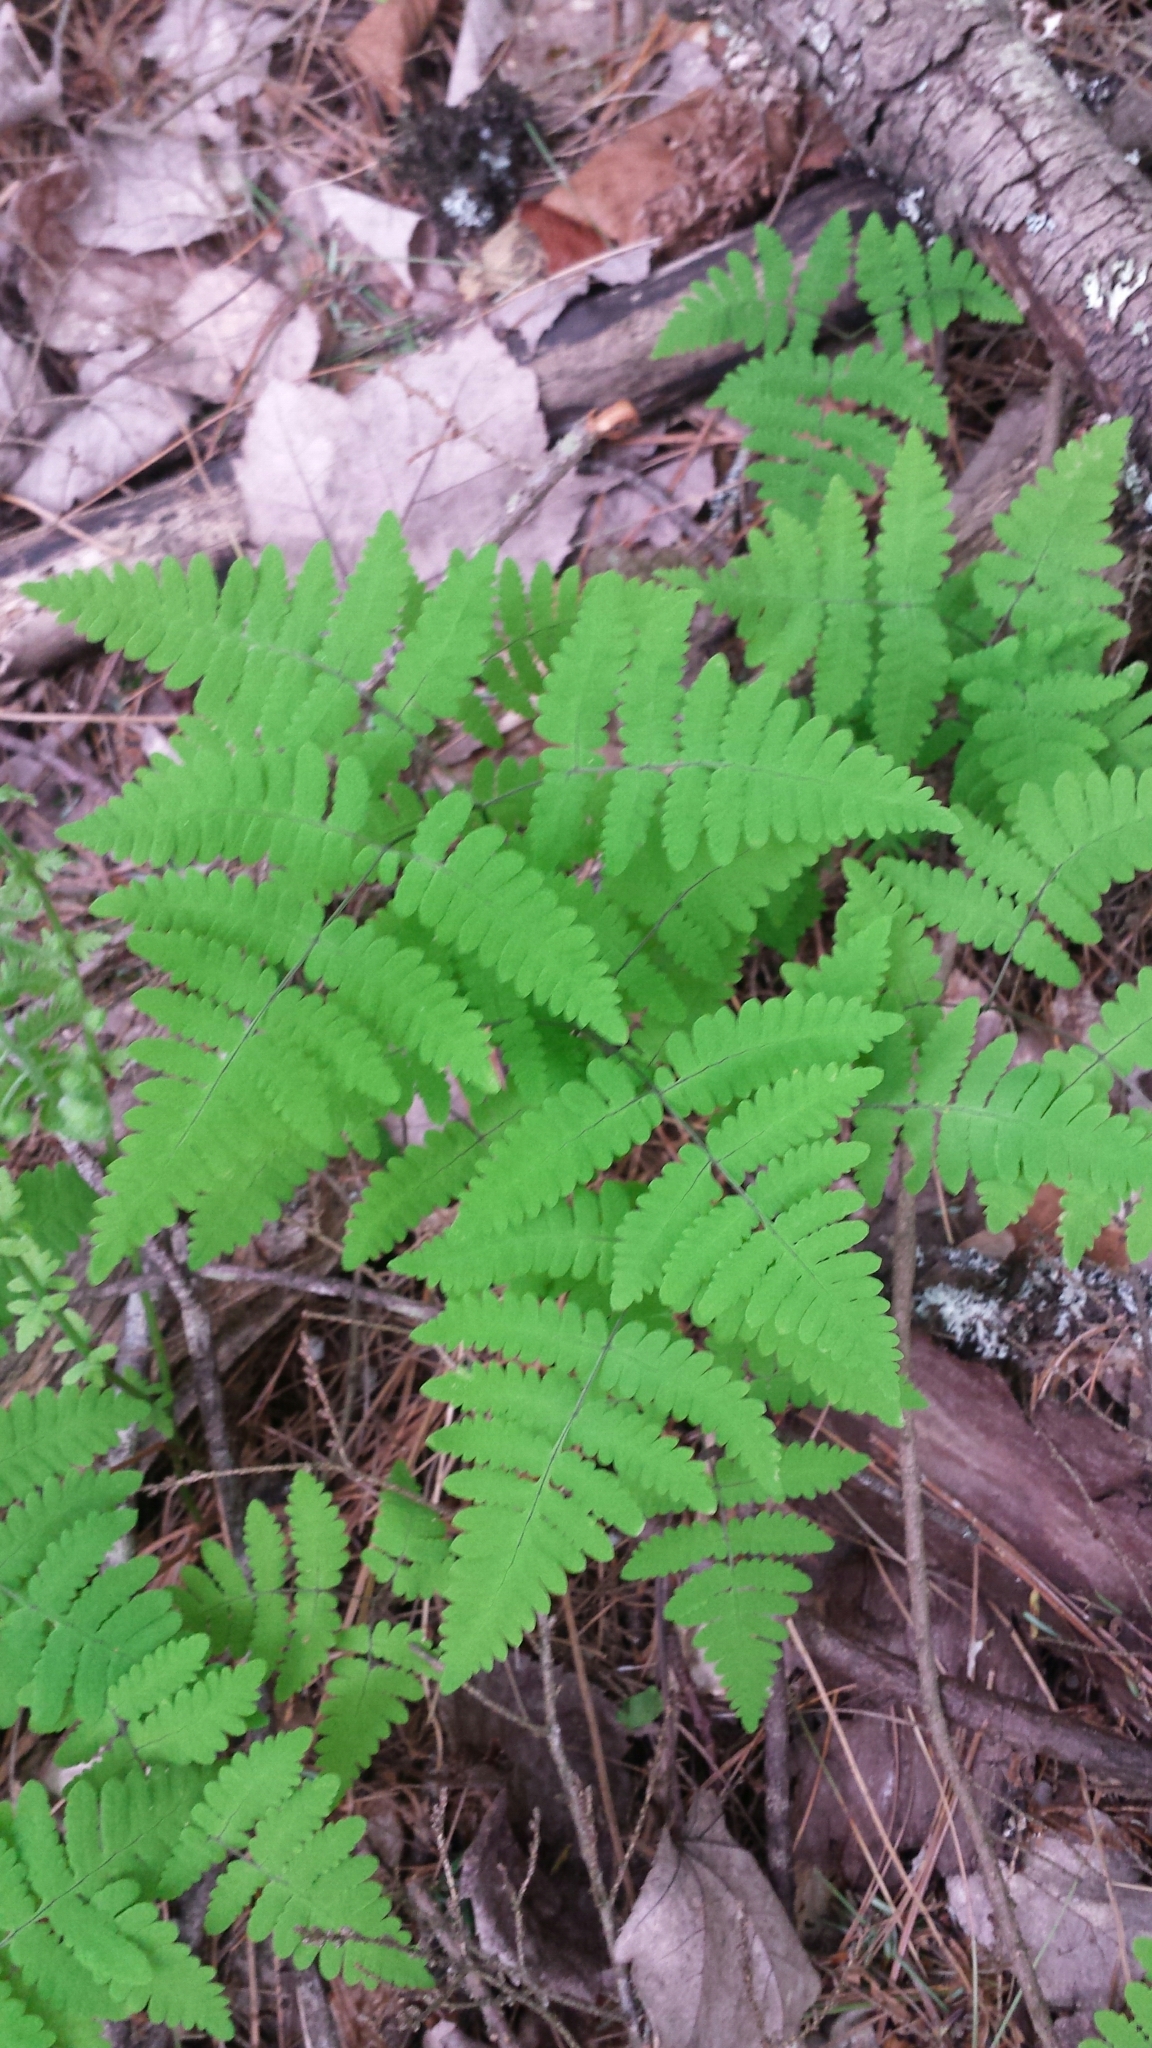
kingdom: Plantae
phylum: Tracheophyta
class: Polypodiopsida
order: Polypodiales
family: Cystopteridaceae
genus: Gymnocarpium
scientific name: Gymnocarpium dryopteris
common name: Oak fern
